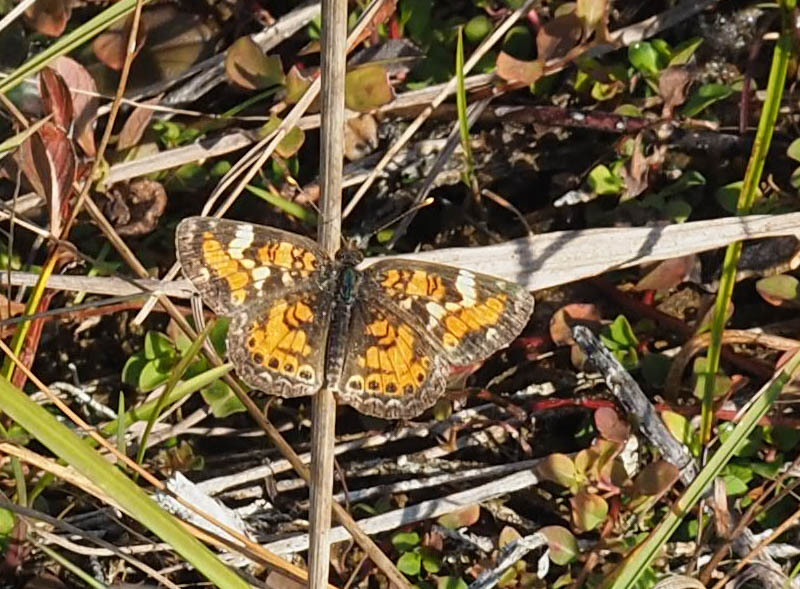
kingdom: Animalia
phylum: Arthropoda
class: Insecta
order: Lepidoptera
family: Nymphalidae
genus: Phyciodes
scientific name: Phyciodes phaon
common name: Phaon crescent
